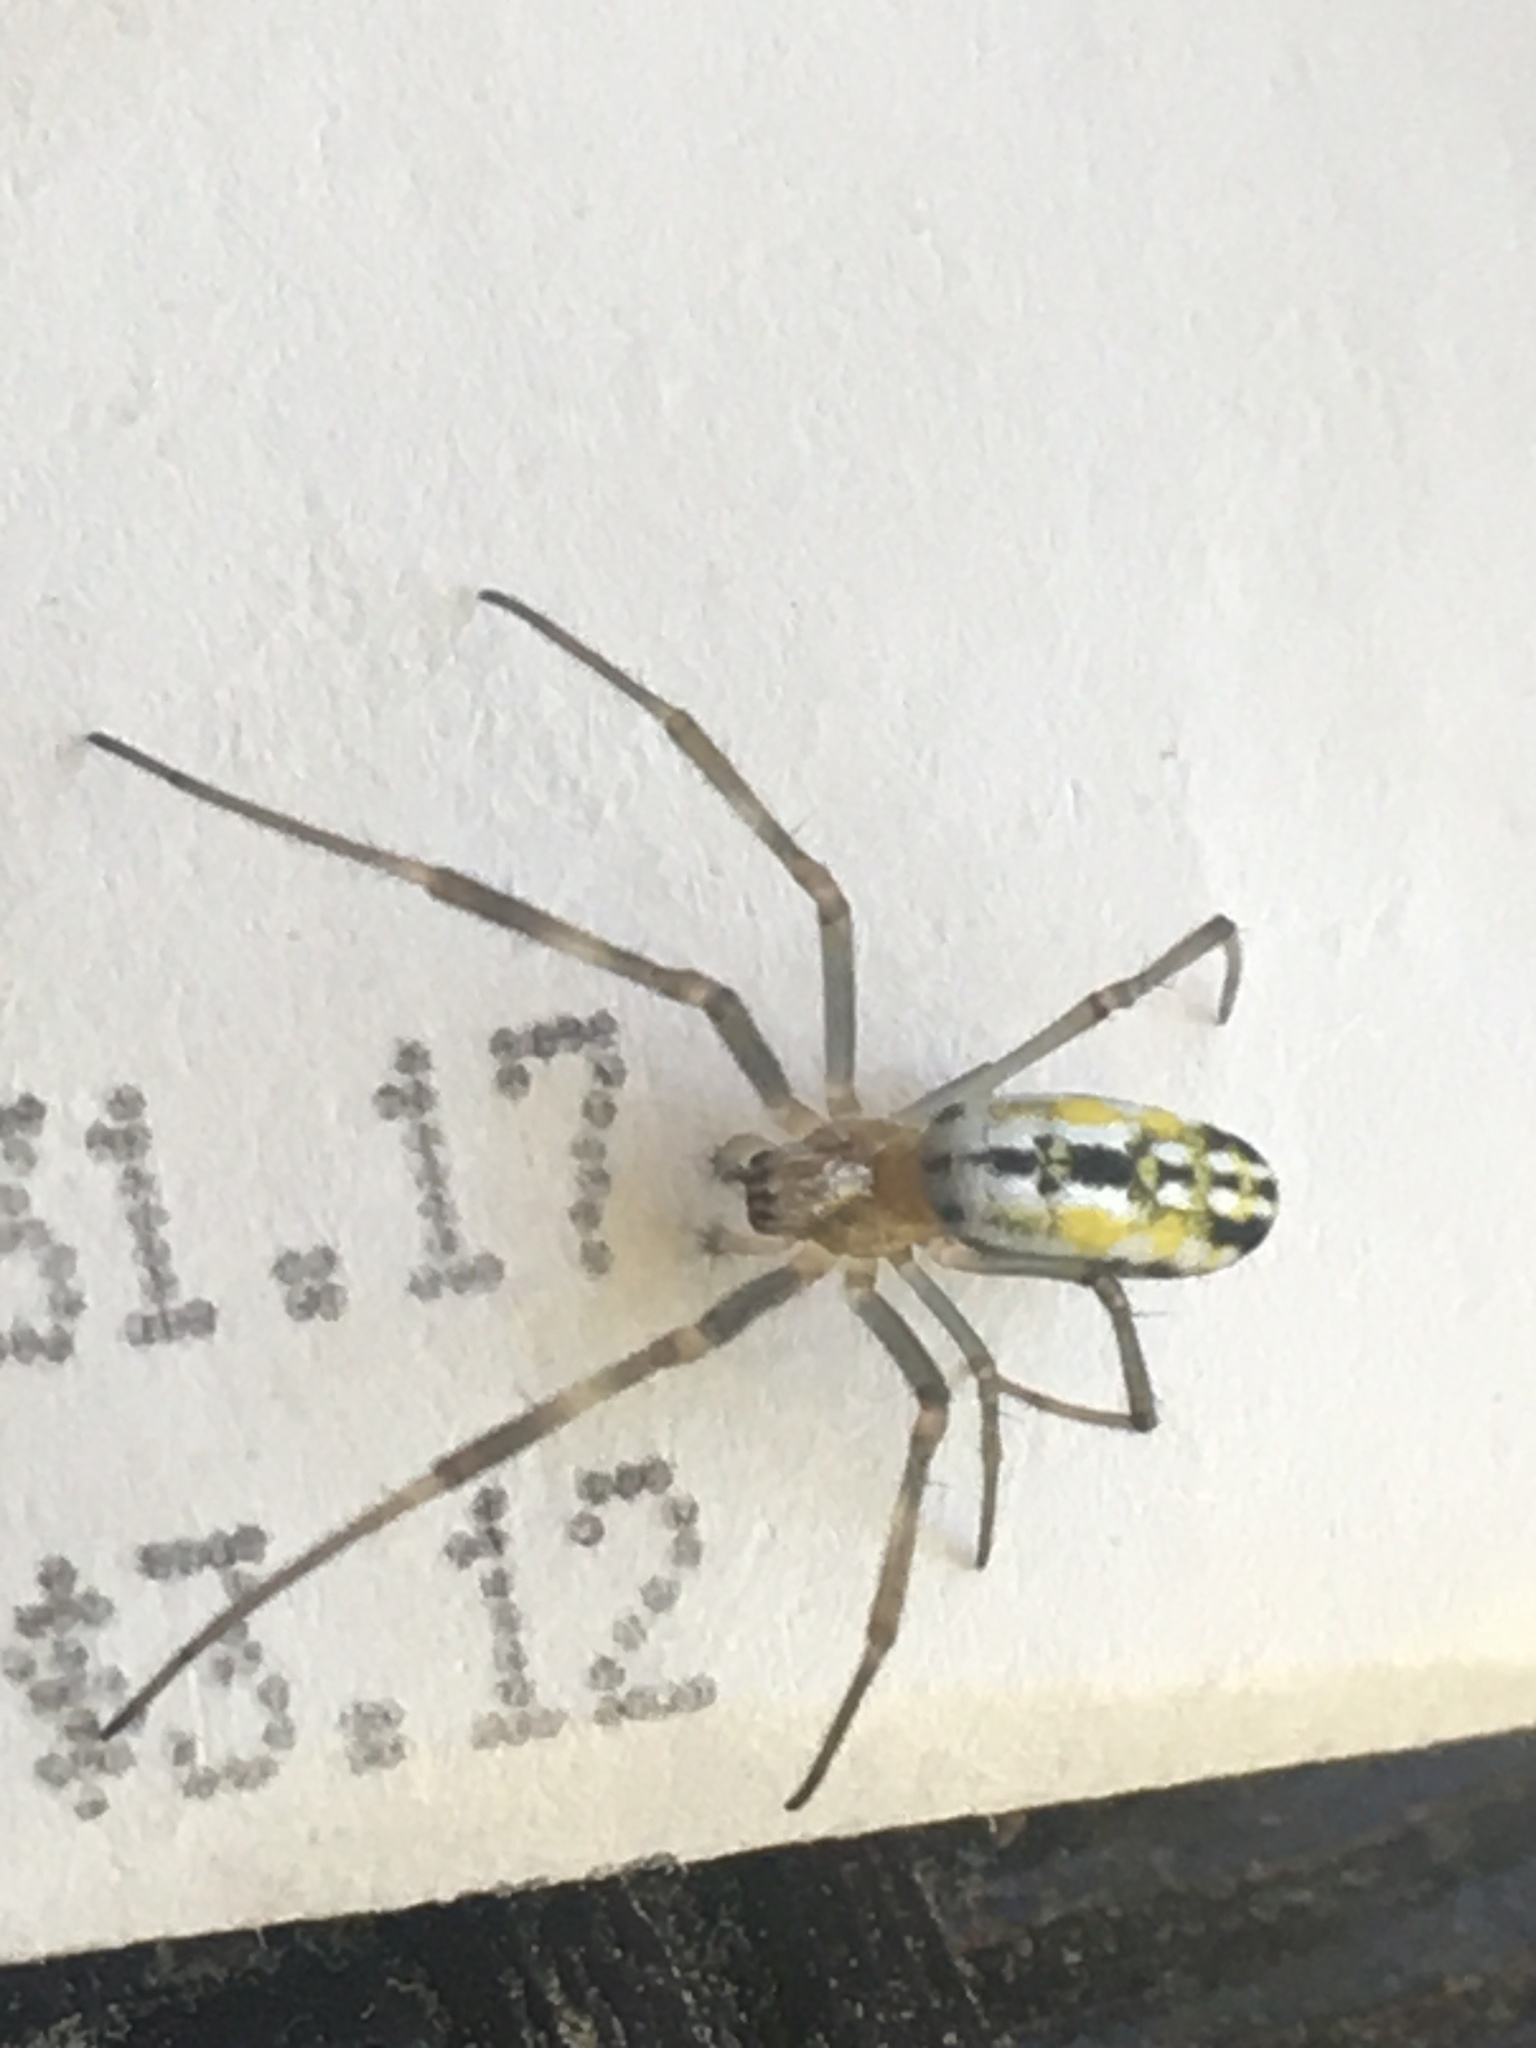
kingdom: Animalia
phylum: Arthropoda
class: Arachnida
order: Araneae
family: Araneidae
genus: Trichonephila
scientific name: Trichonephila clavipes
